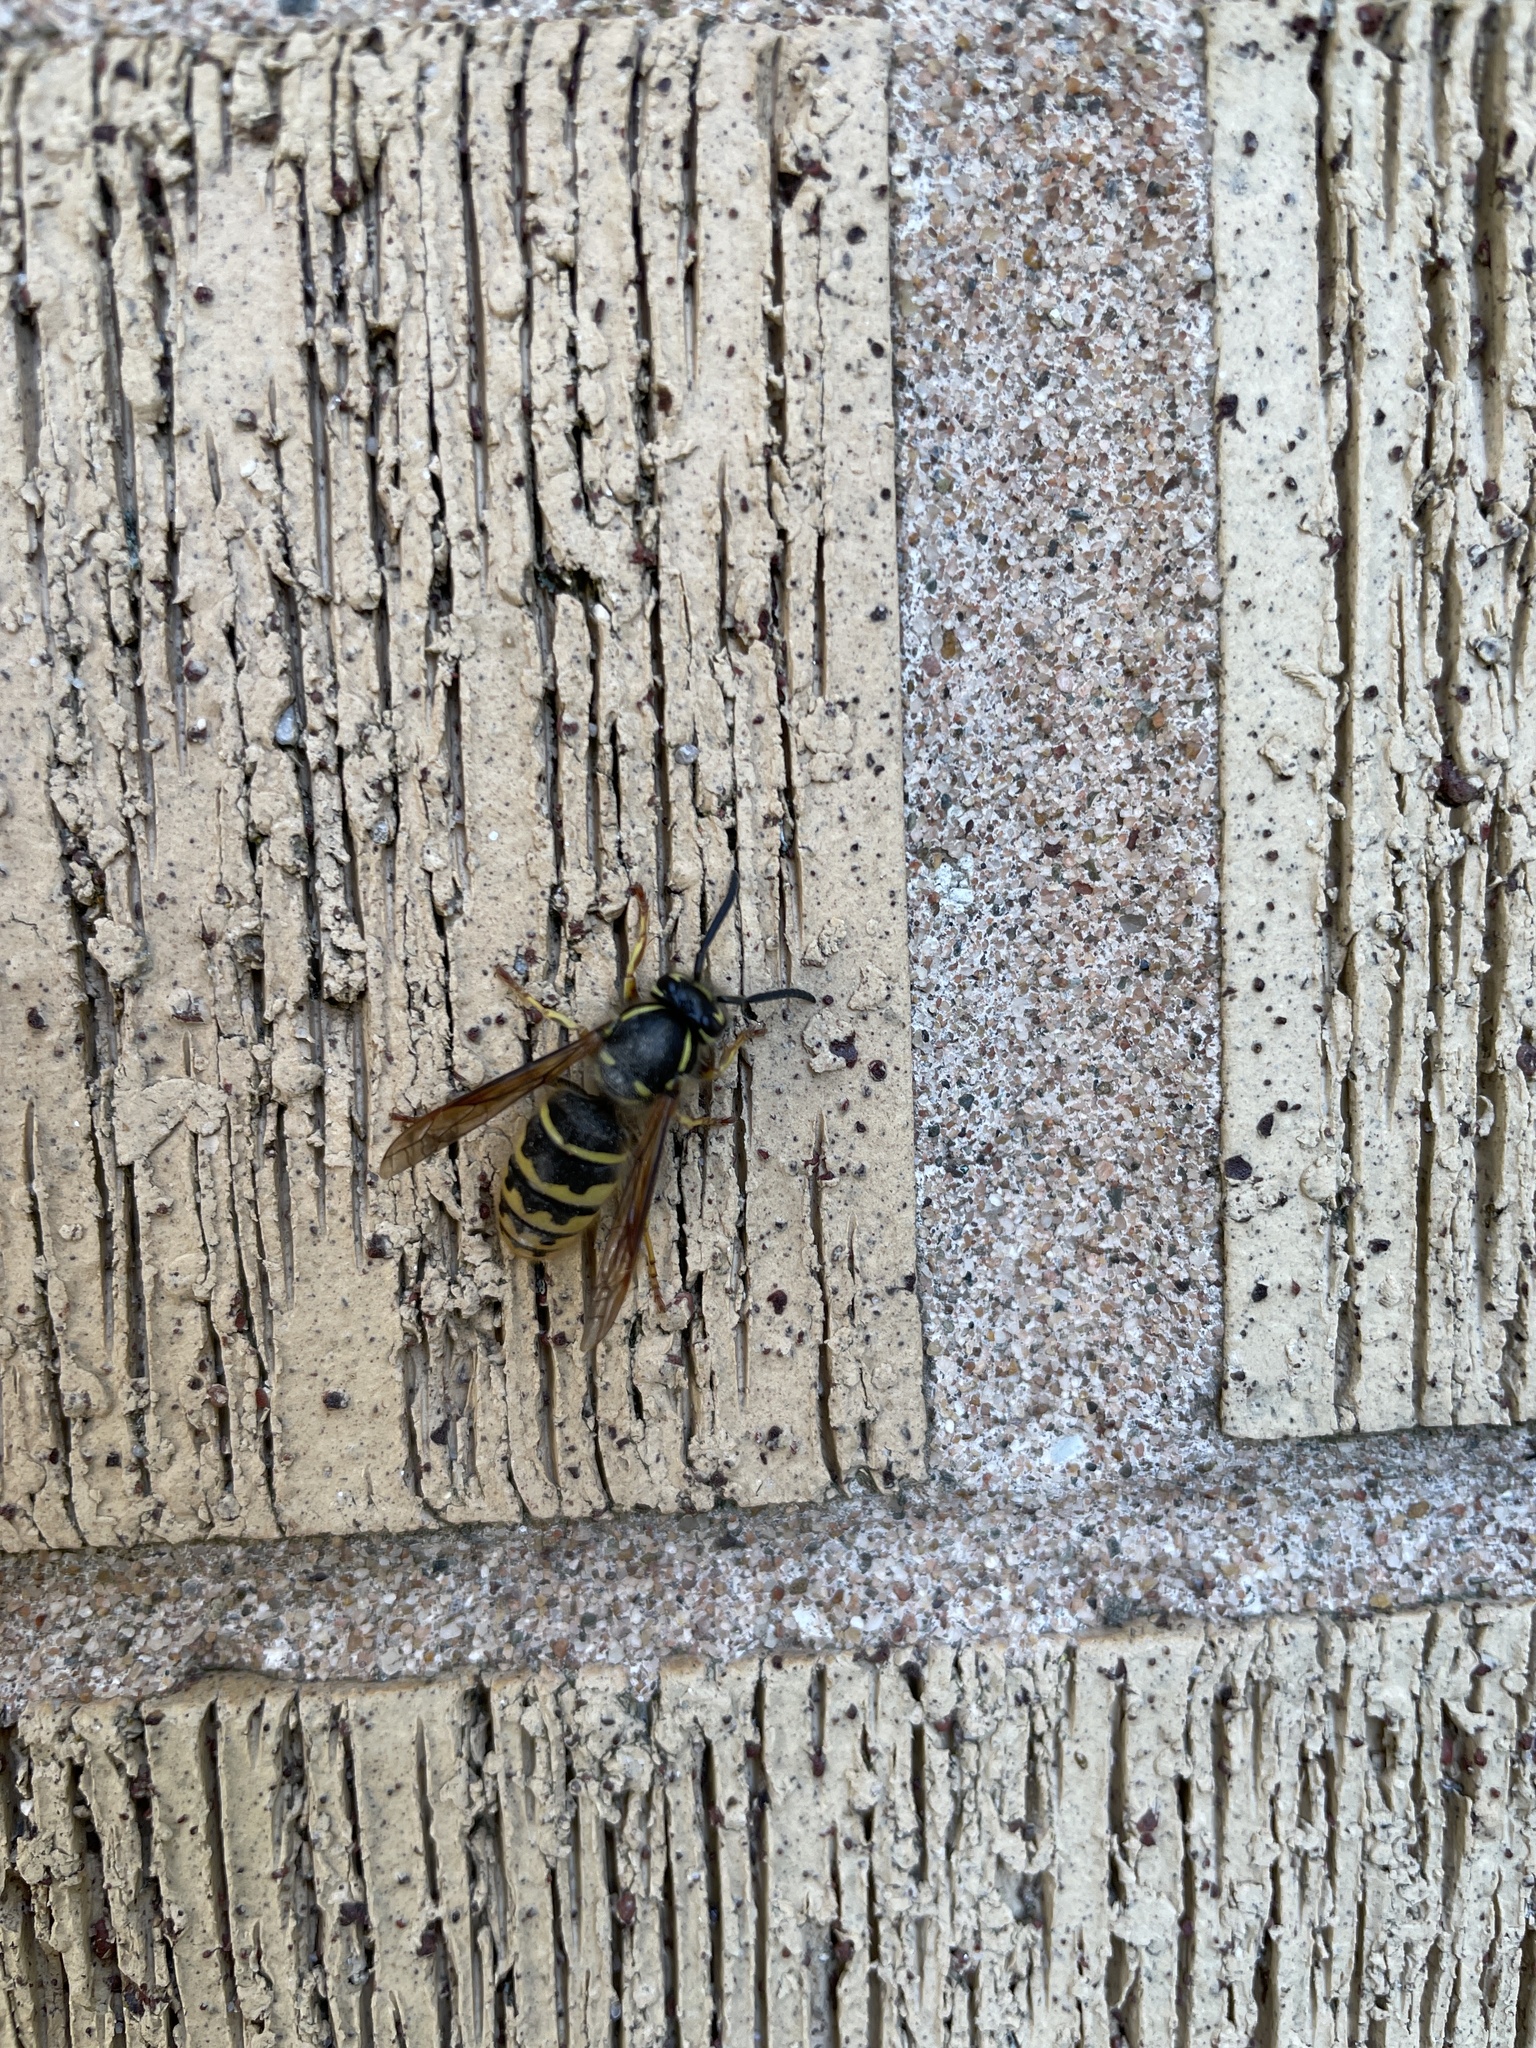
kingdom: Animalia
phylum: Arthropoda
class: Insecta
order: Hymenoptera
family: Vespidae
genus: Vespula
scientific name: Vespula alascensis
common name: Alaska yellowjacket
